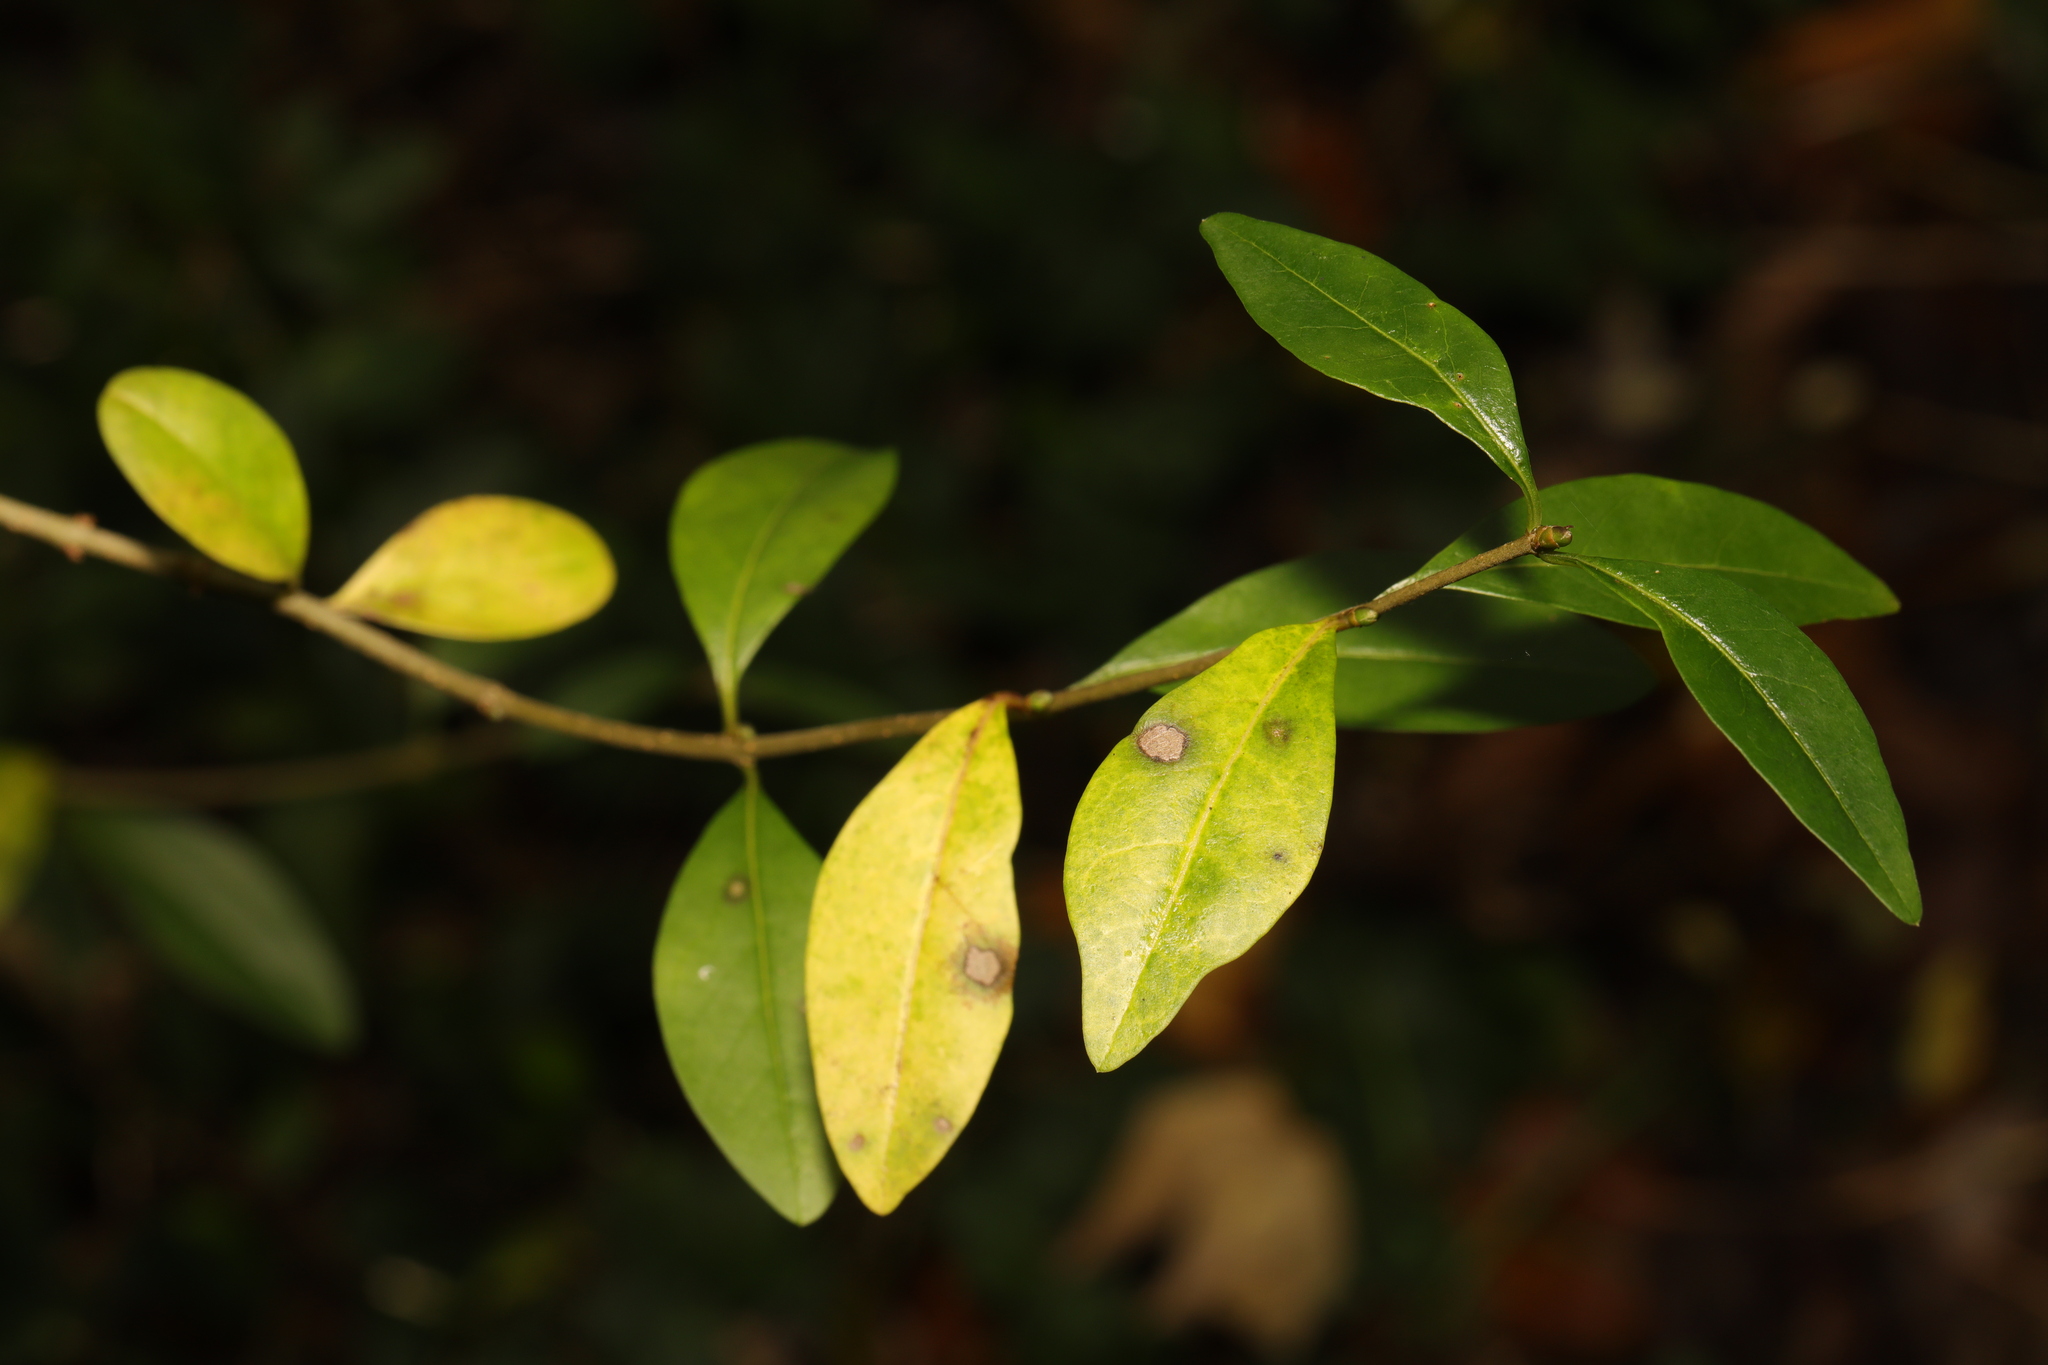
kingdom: Plantae
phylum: Tracheophyta
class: Magnoliopsida
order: Lamiales
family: Oleaceae
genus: Ligustrum
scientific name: Ligustrum vulgare
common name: Wild privet
